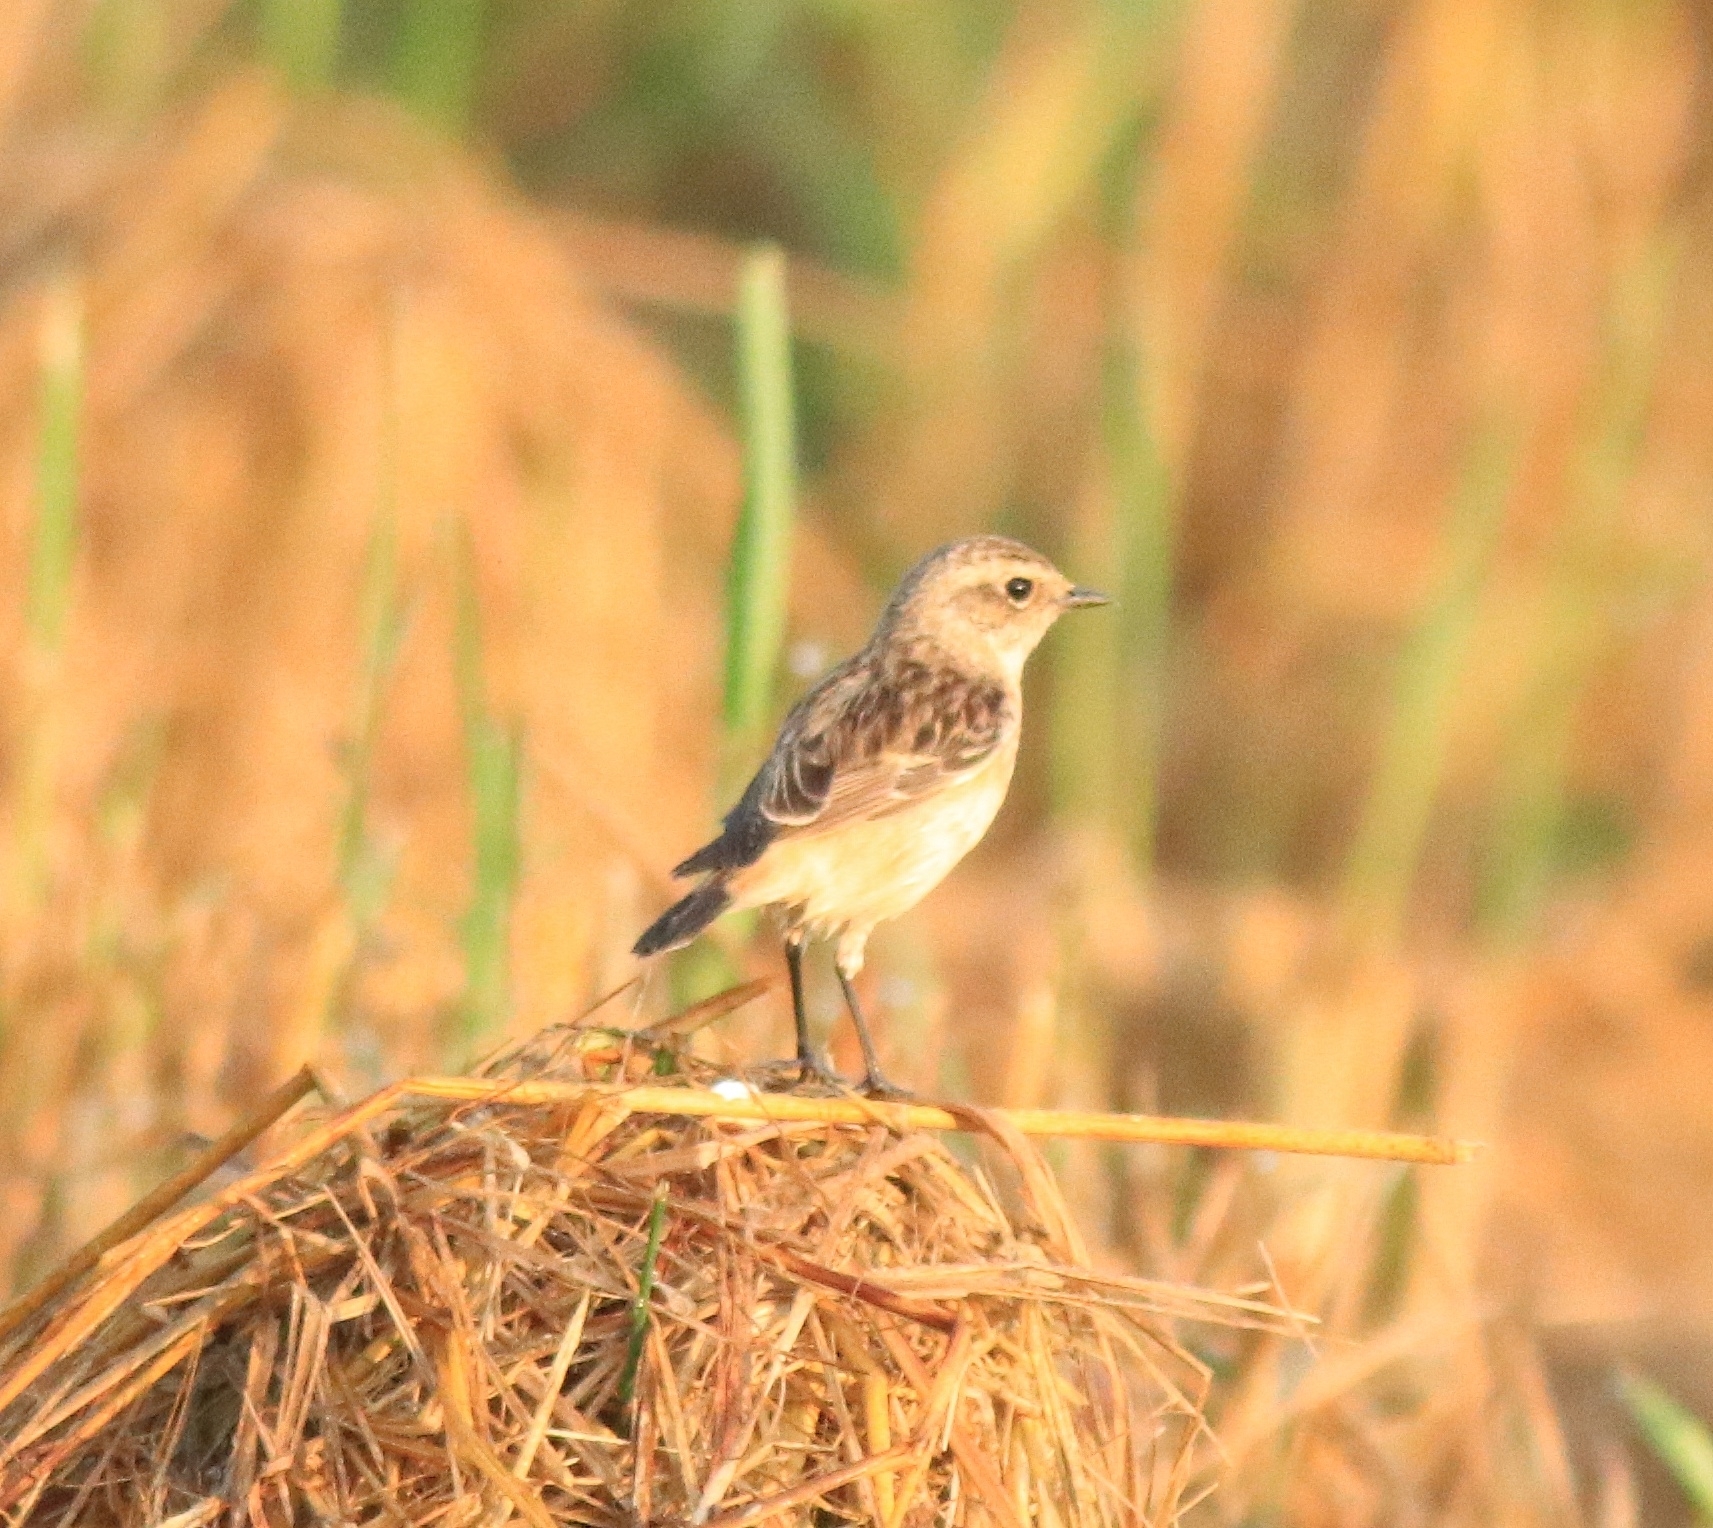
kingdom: Animalia
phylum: Chordata
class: Aves
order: Passeriformes
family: Muscicapidae
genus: Saxicola
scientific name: Saxicola maurus
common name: Siberian stonechat
